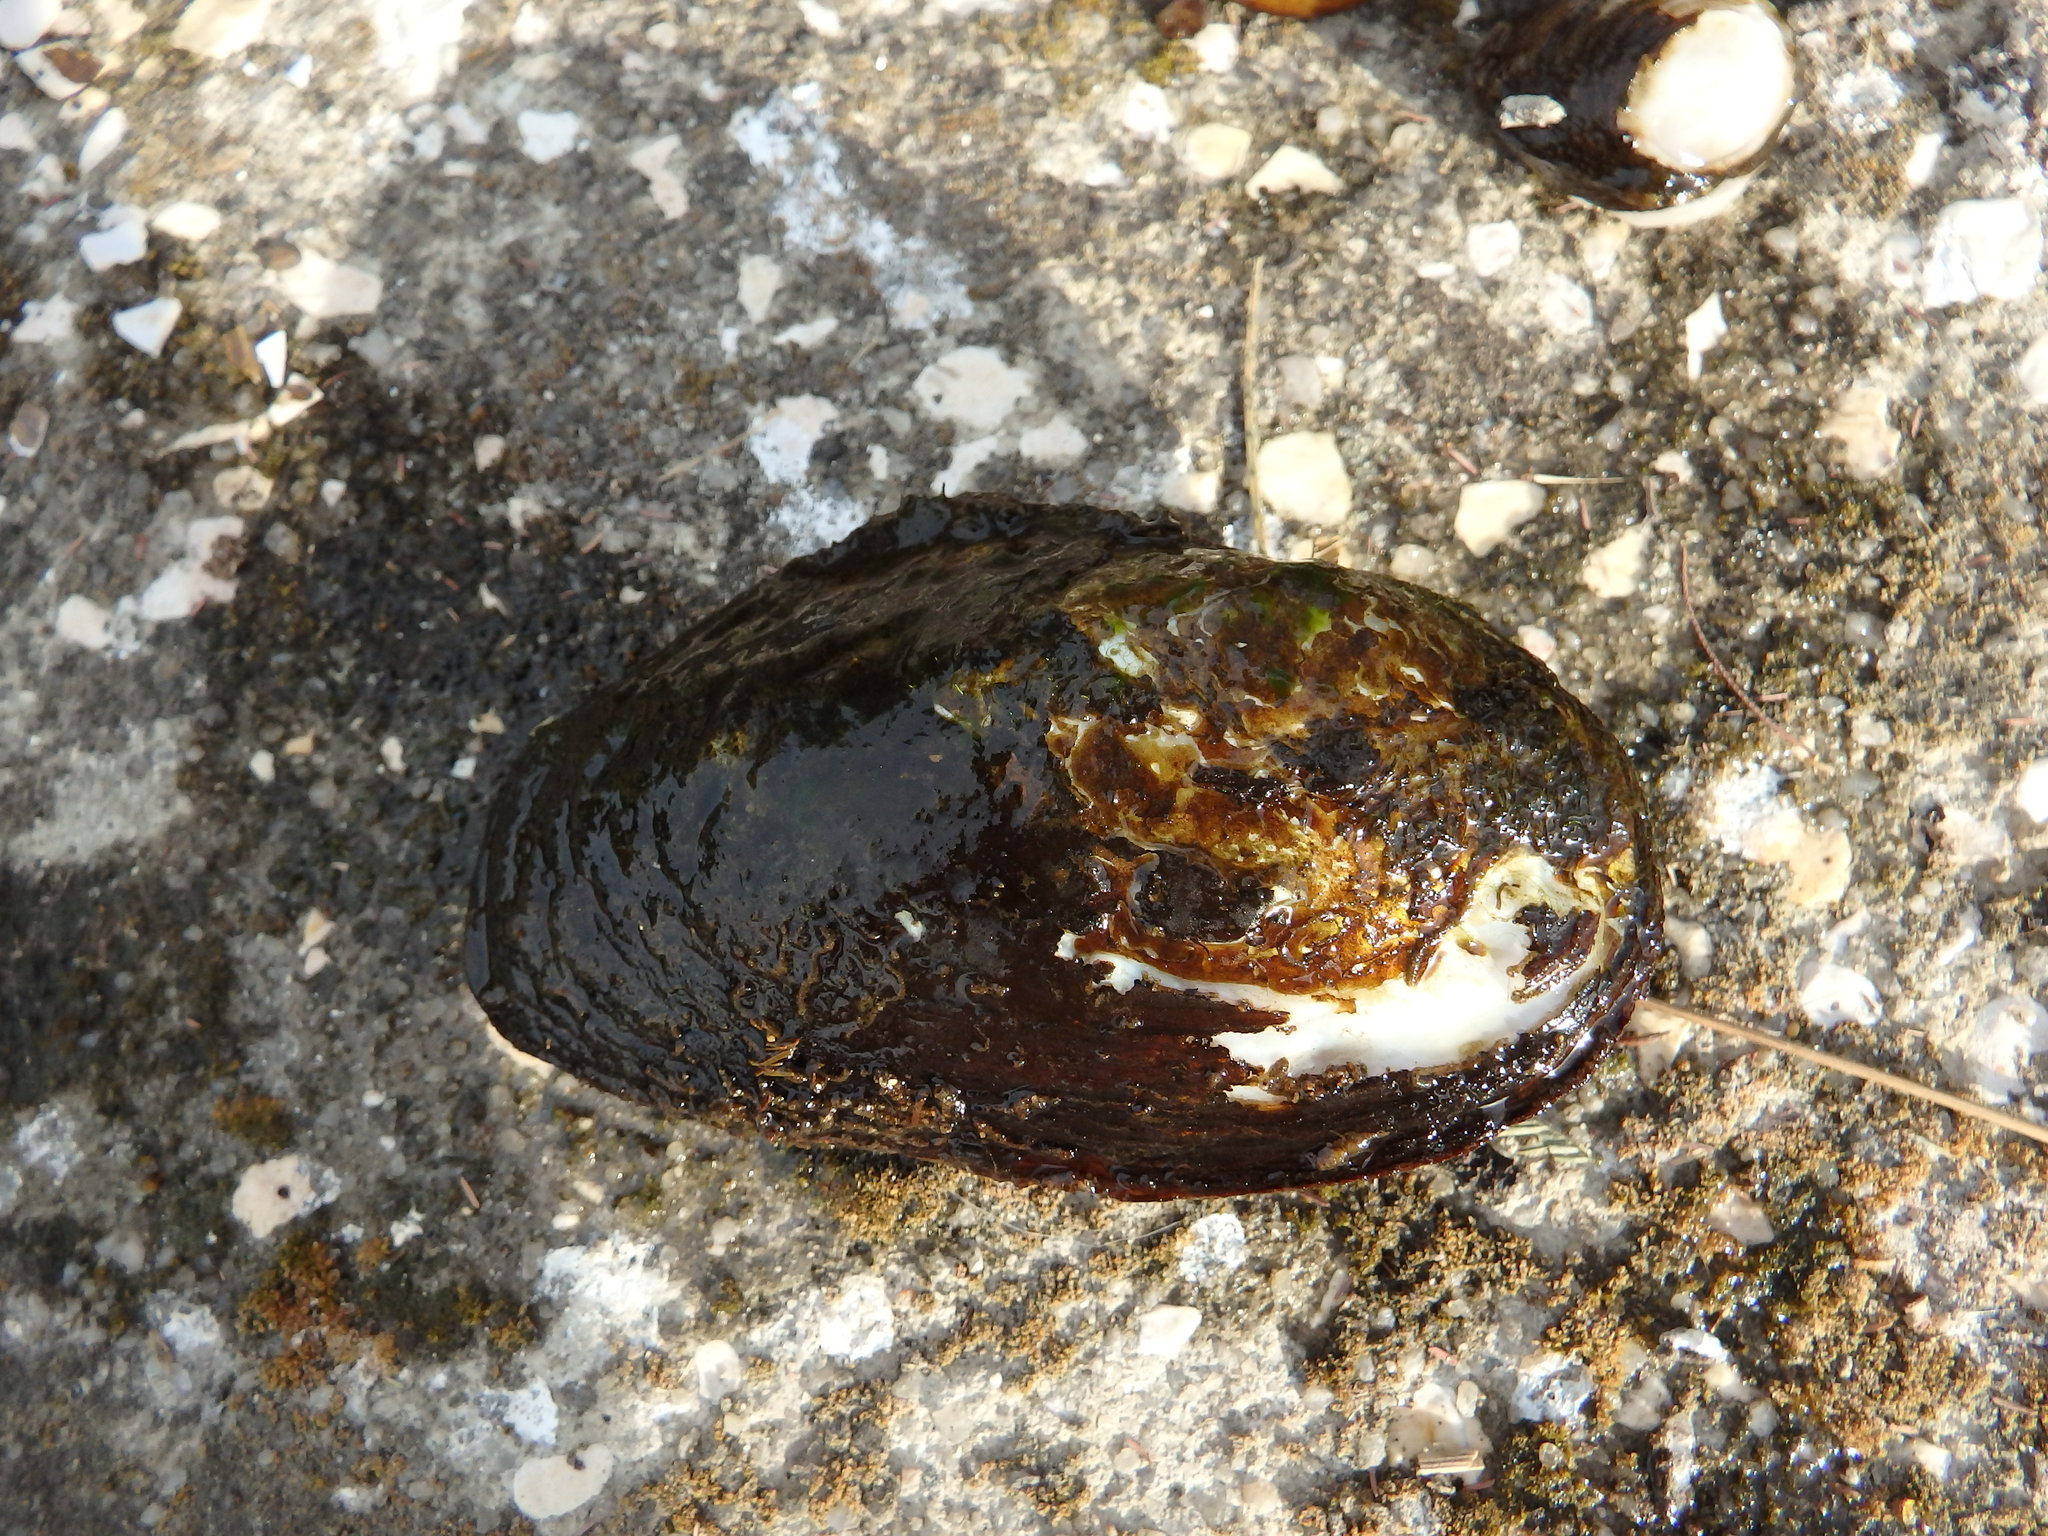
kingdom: Animalia
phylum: Mollusca
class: Bivalvia
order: Unionida
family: Unionidae
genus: Anodonta
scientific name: Anodonta anatina
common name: Duck mussel
